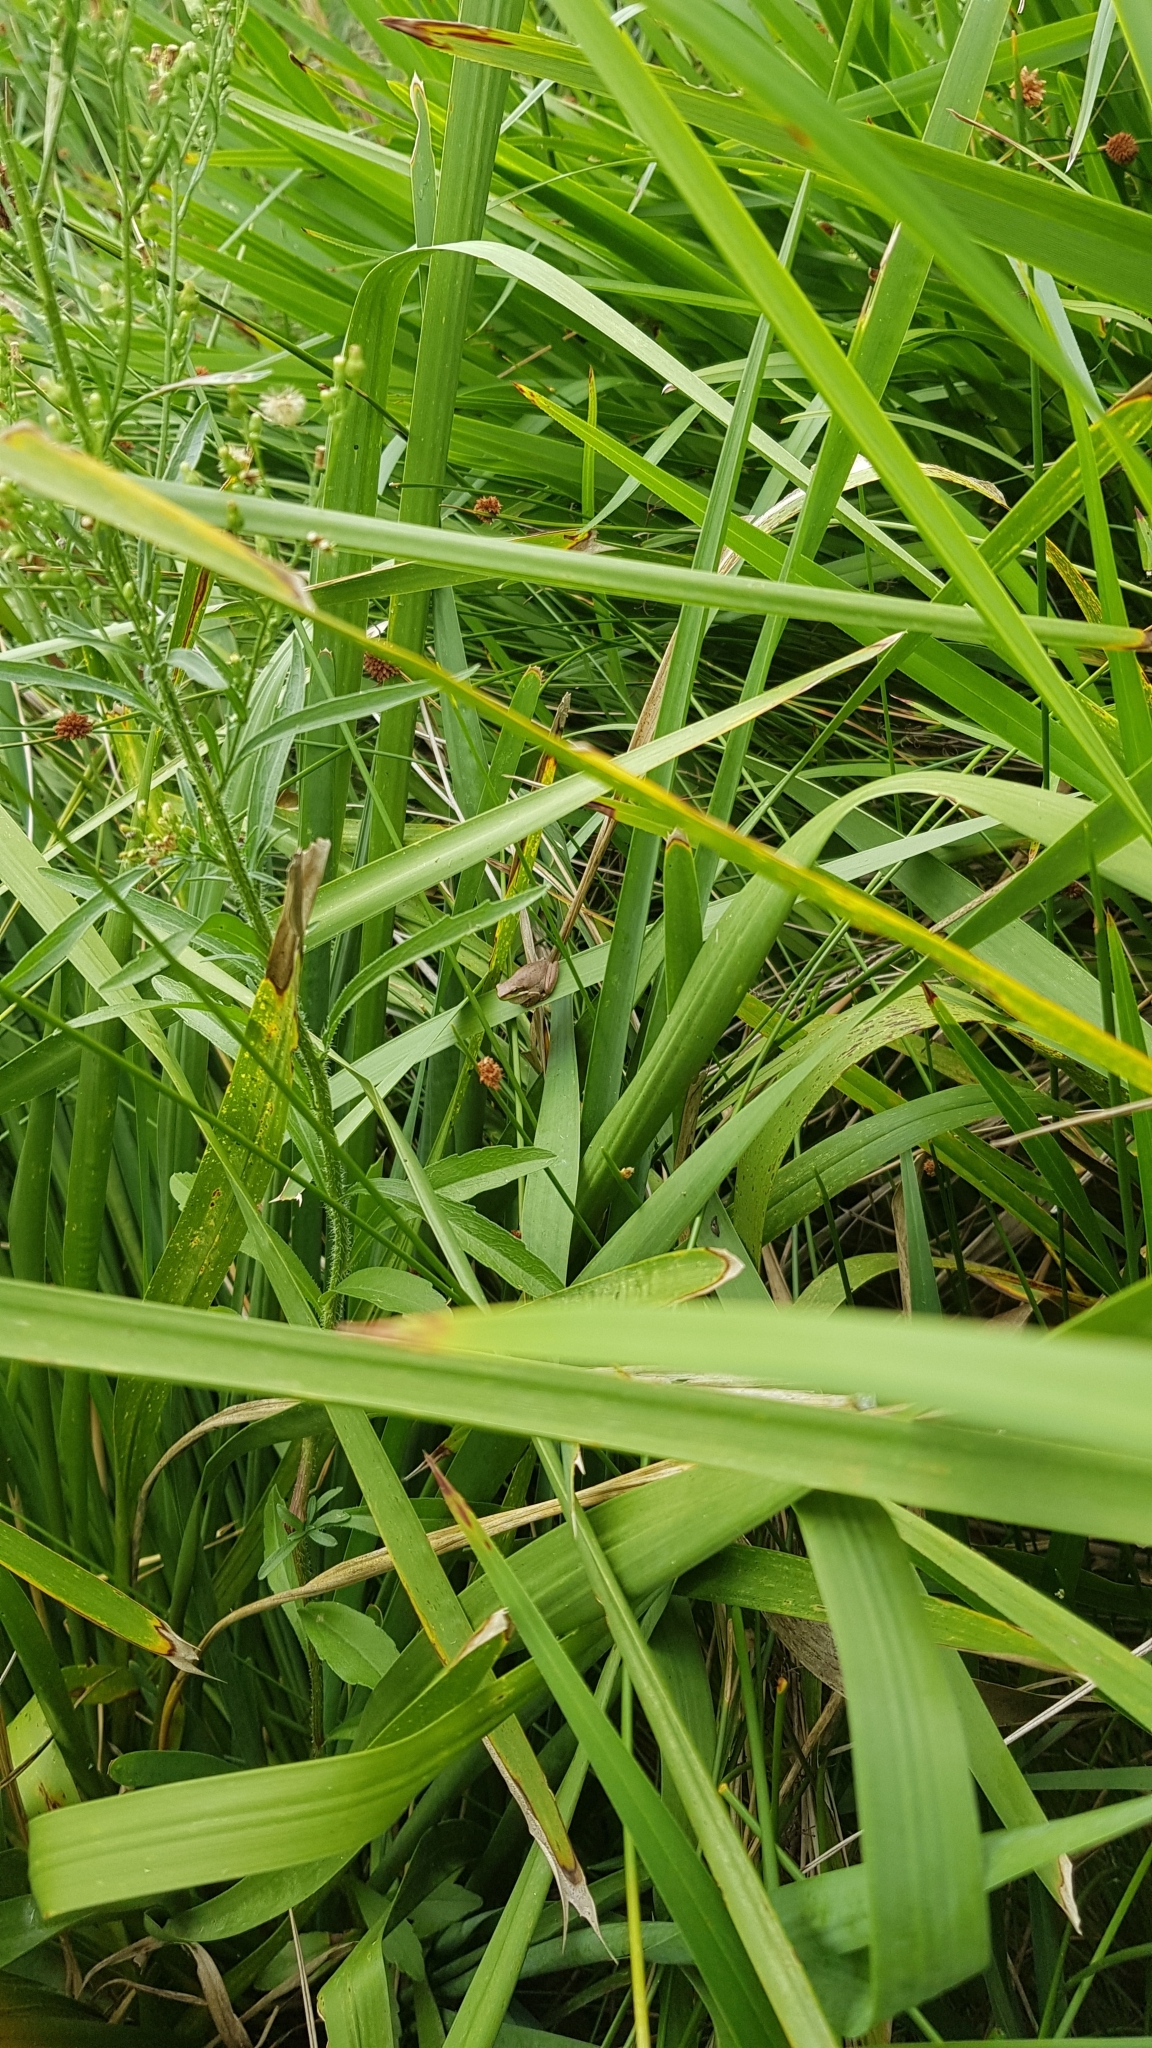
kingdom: Animalia
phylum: Chordata
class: Amphibia
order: Anura
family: Pelodryadidae
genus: Litoria
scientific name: Litoria fallax
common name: Eastern dwarf treefrog
